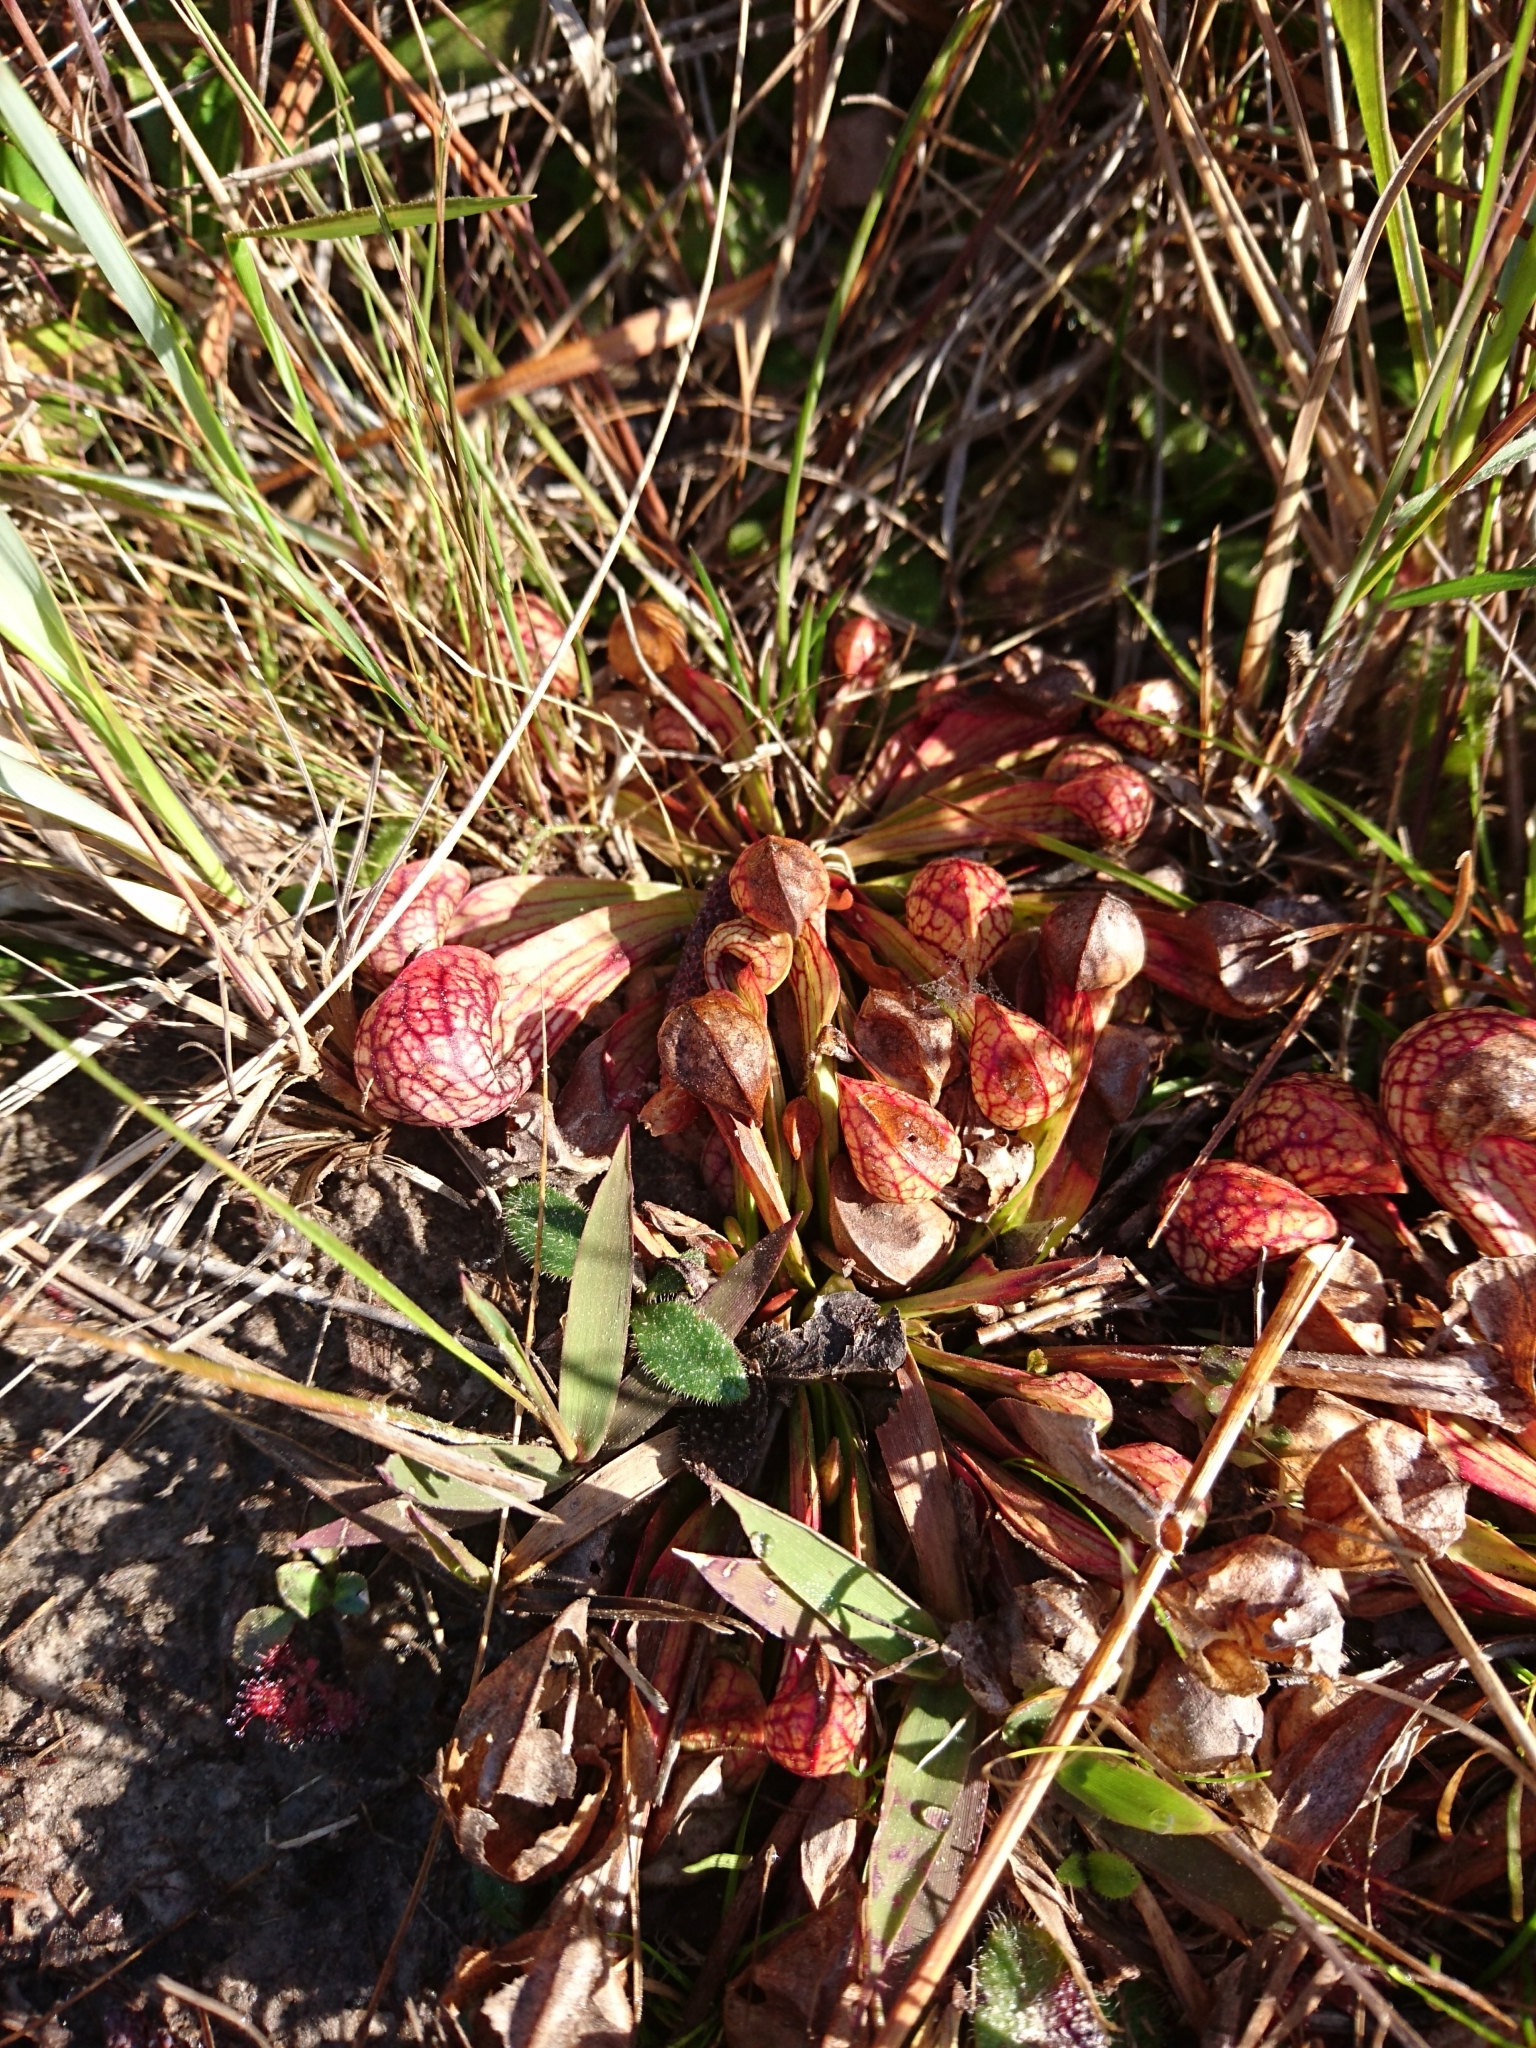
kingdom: Plantae
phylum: Tracheophyta
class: Magnoliopsida
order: Ericales
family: Sarraceniaceae
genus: Sarracenia
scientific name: Sarracenia psittacina
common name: Parrot pitcherplant
